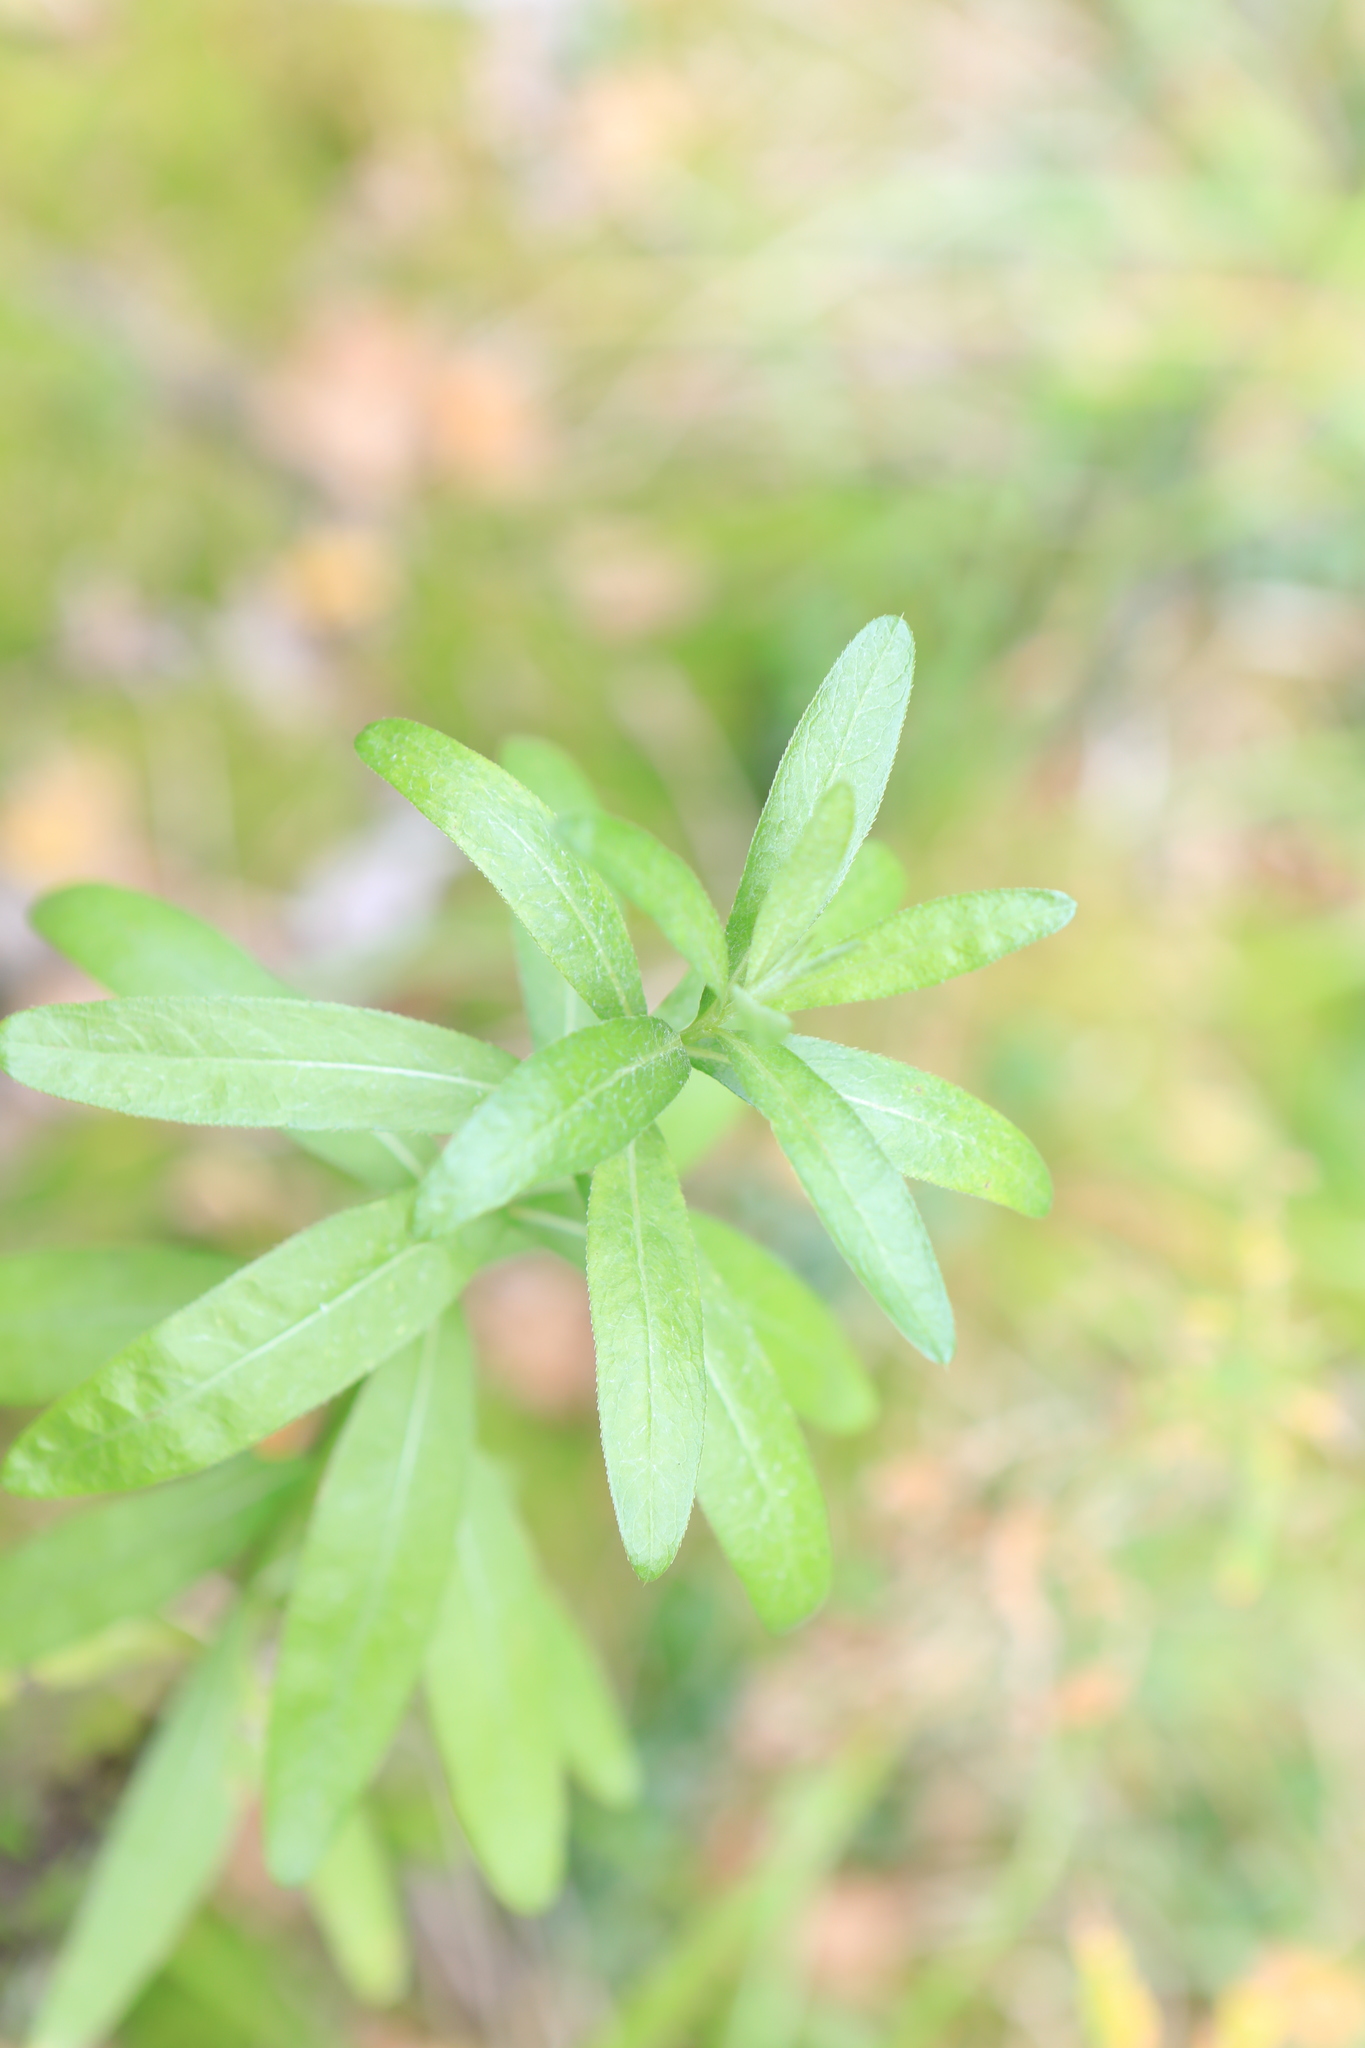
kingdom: Plantae
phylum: Tracheophyta
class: Magnoliopsida
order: Asterales
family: Asteraceae
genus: Cirsium
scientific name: Cirsium arvense
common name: Creeping thistle
